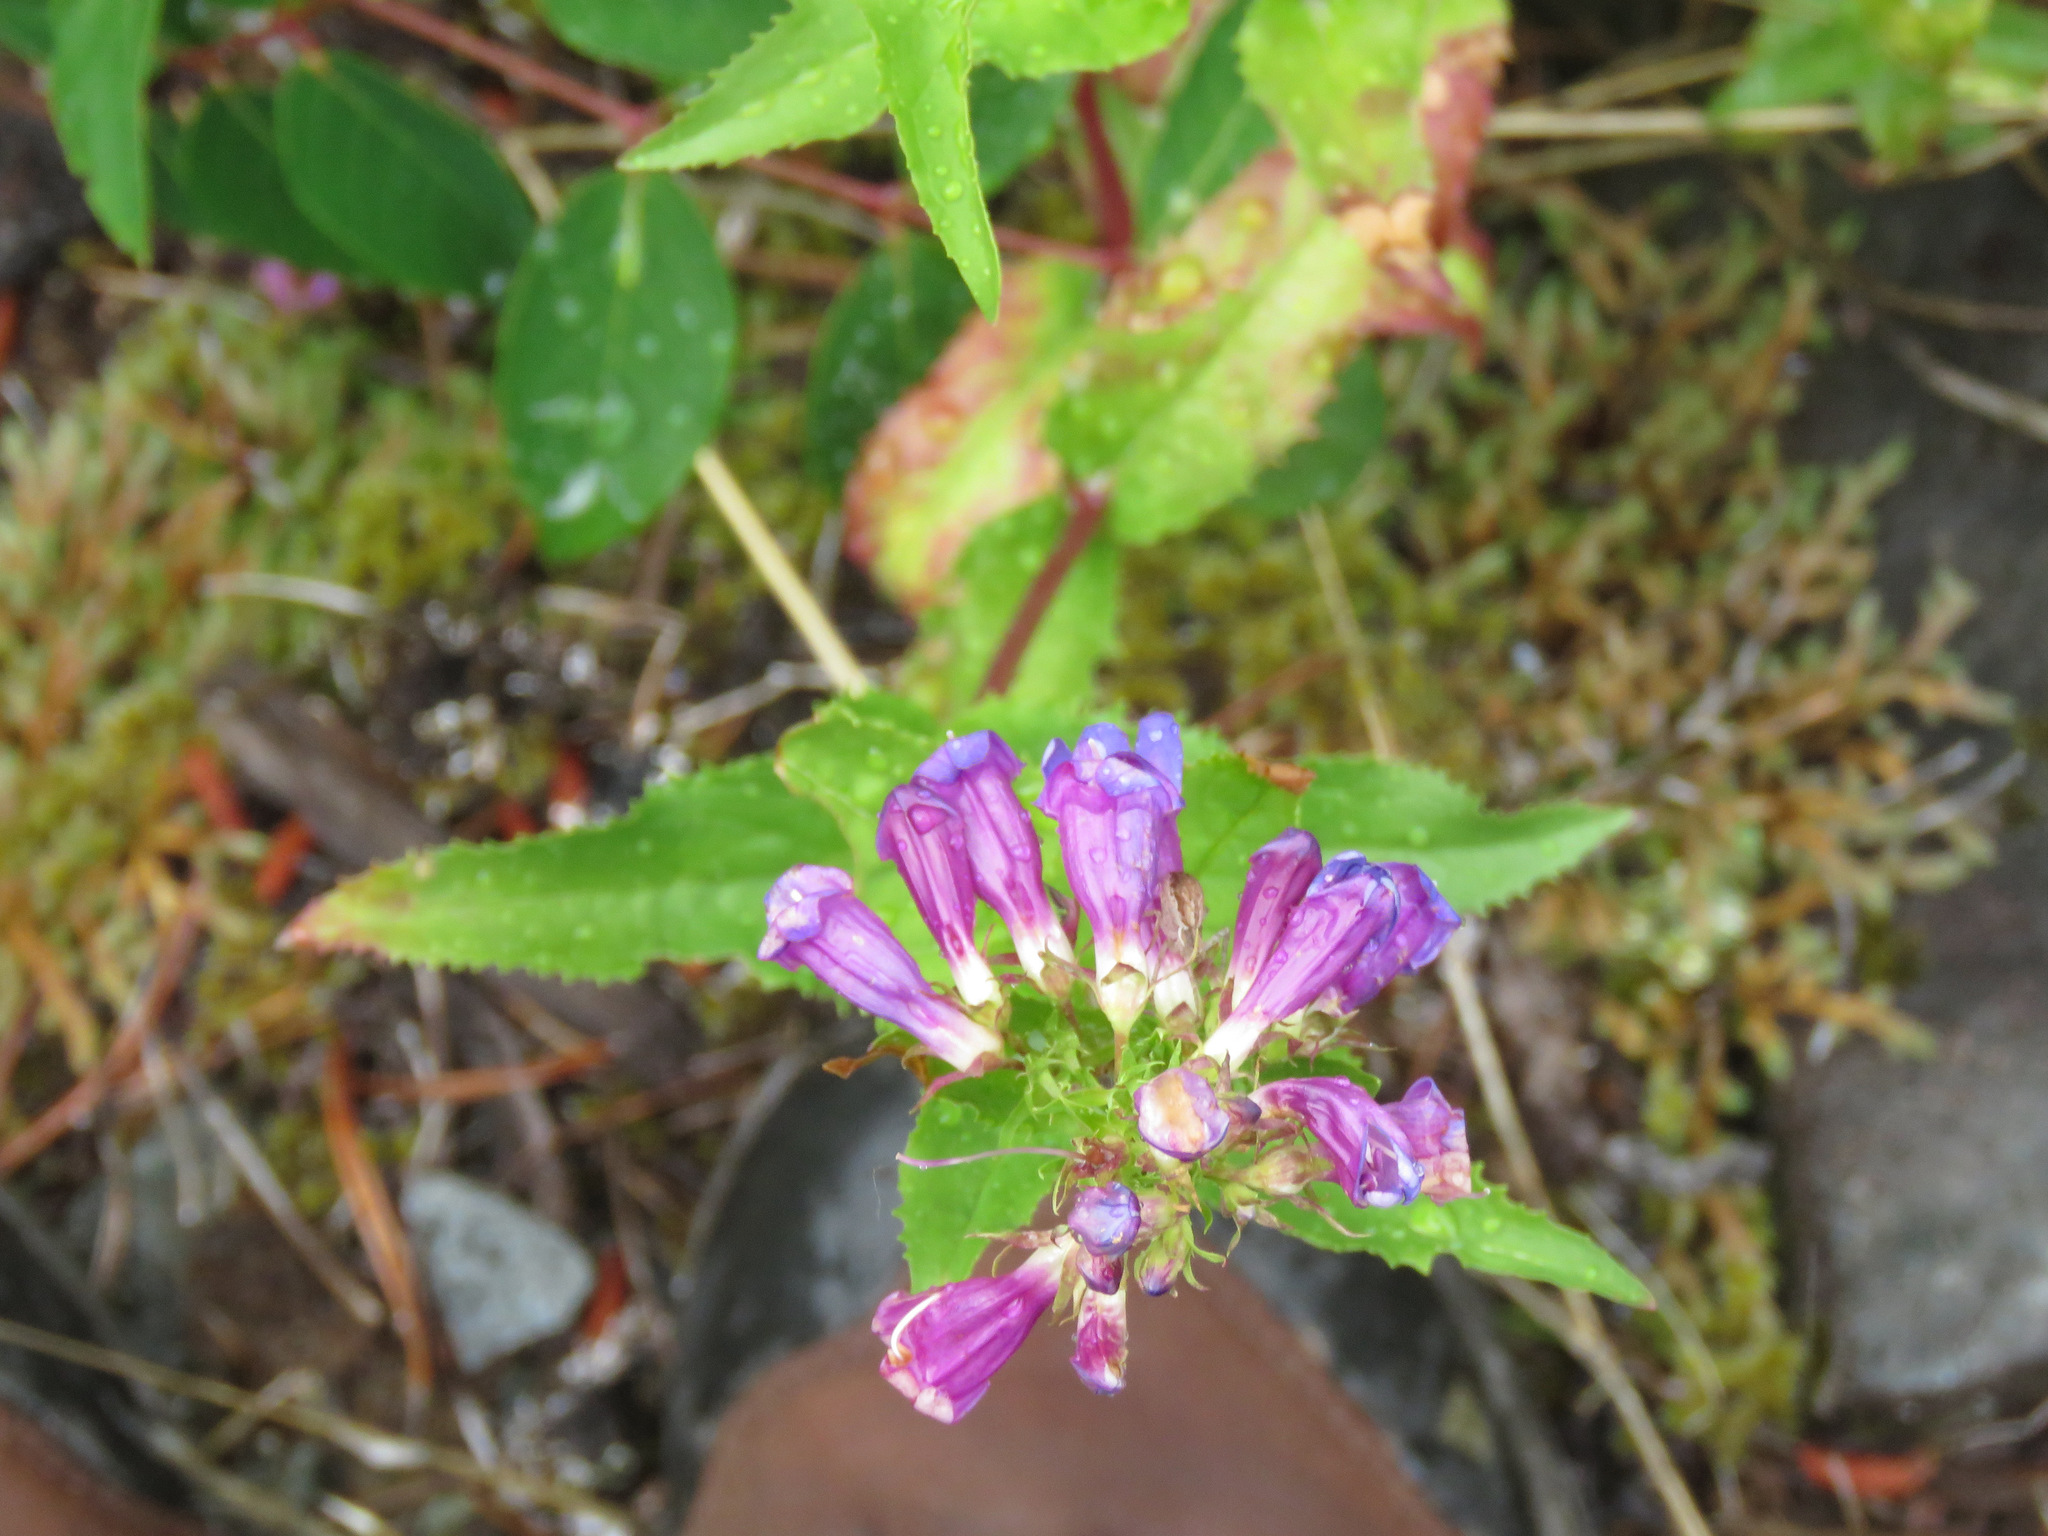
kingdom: Plantae
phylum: Tracheophyta
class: Magnoliopsida
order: Lamiales
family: Plantaginaceae
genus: Penstemon
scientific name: Penstemon serrulatus
